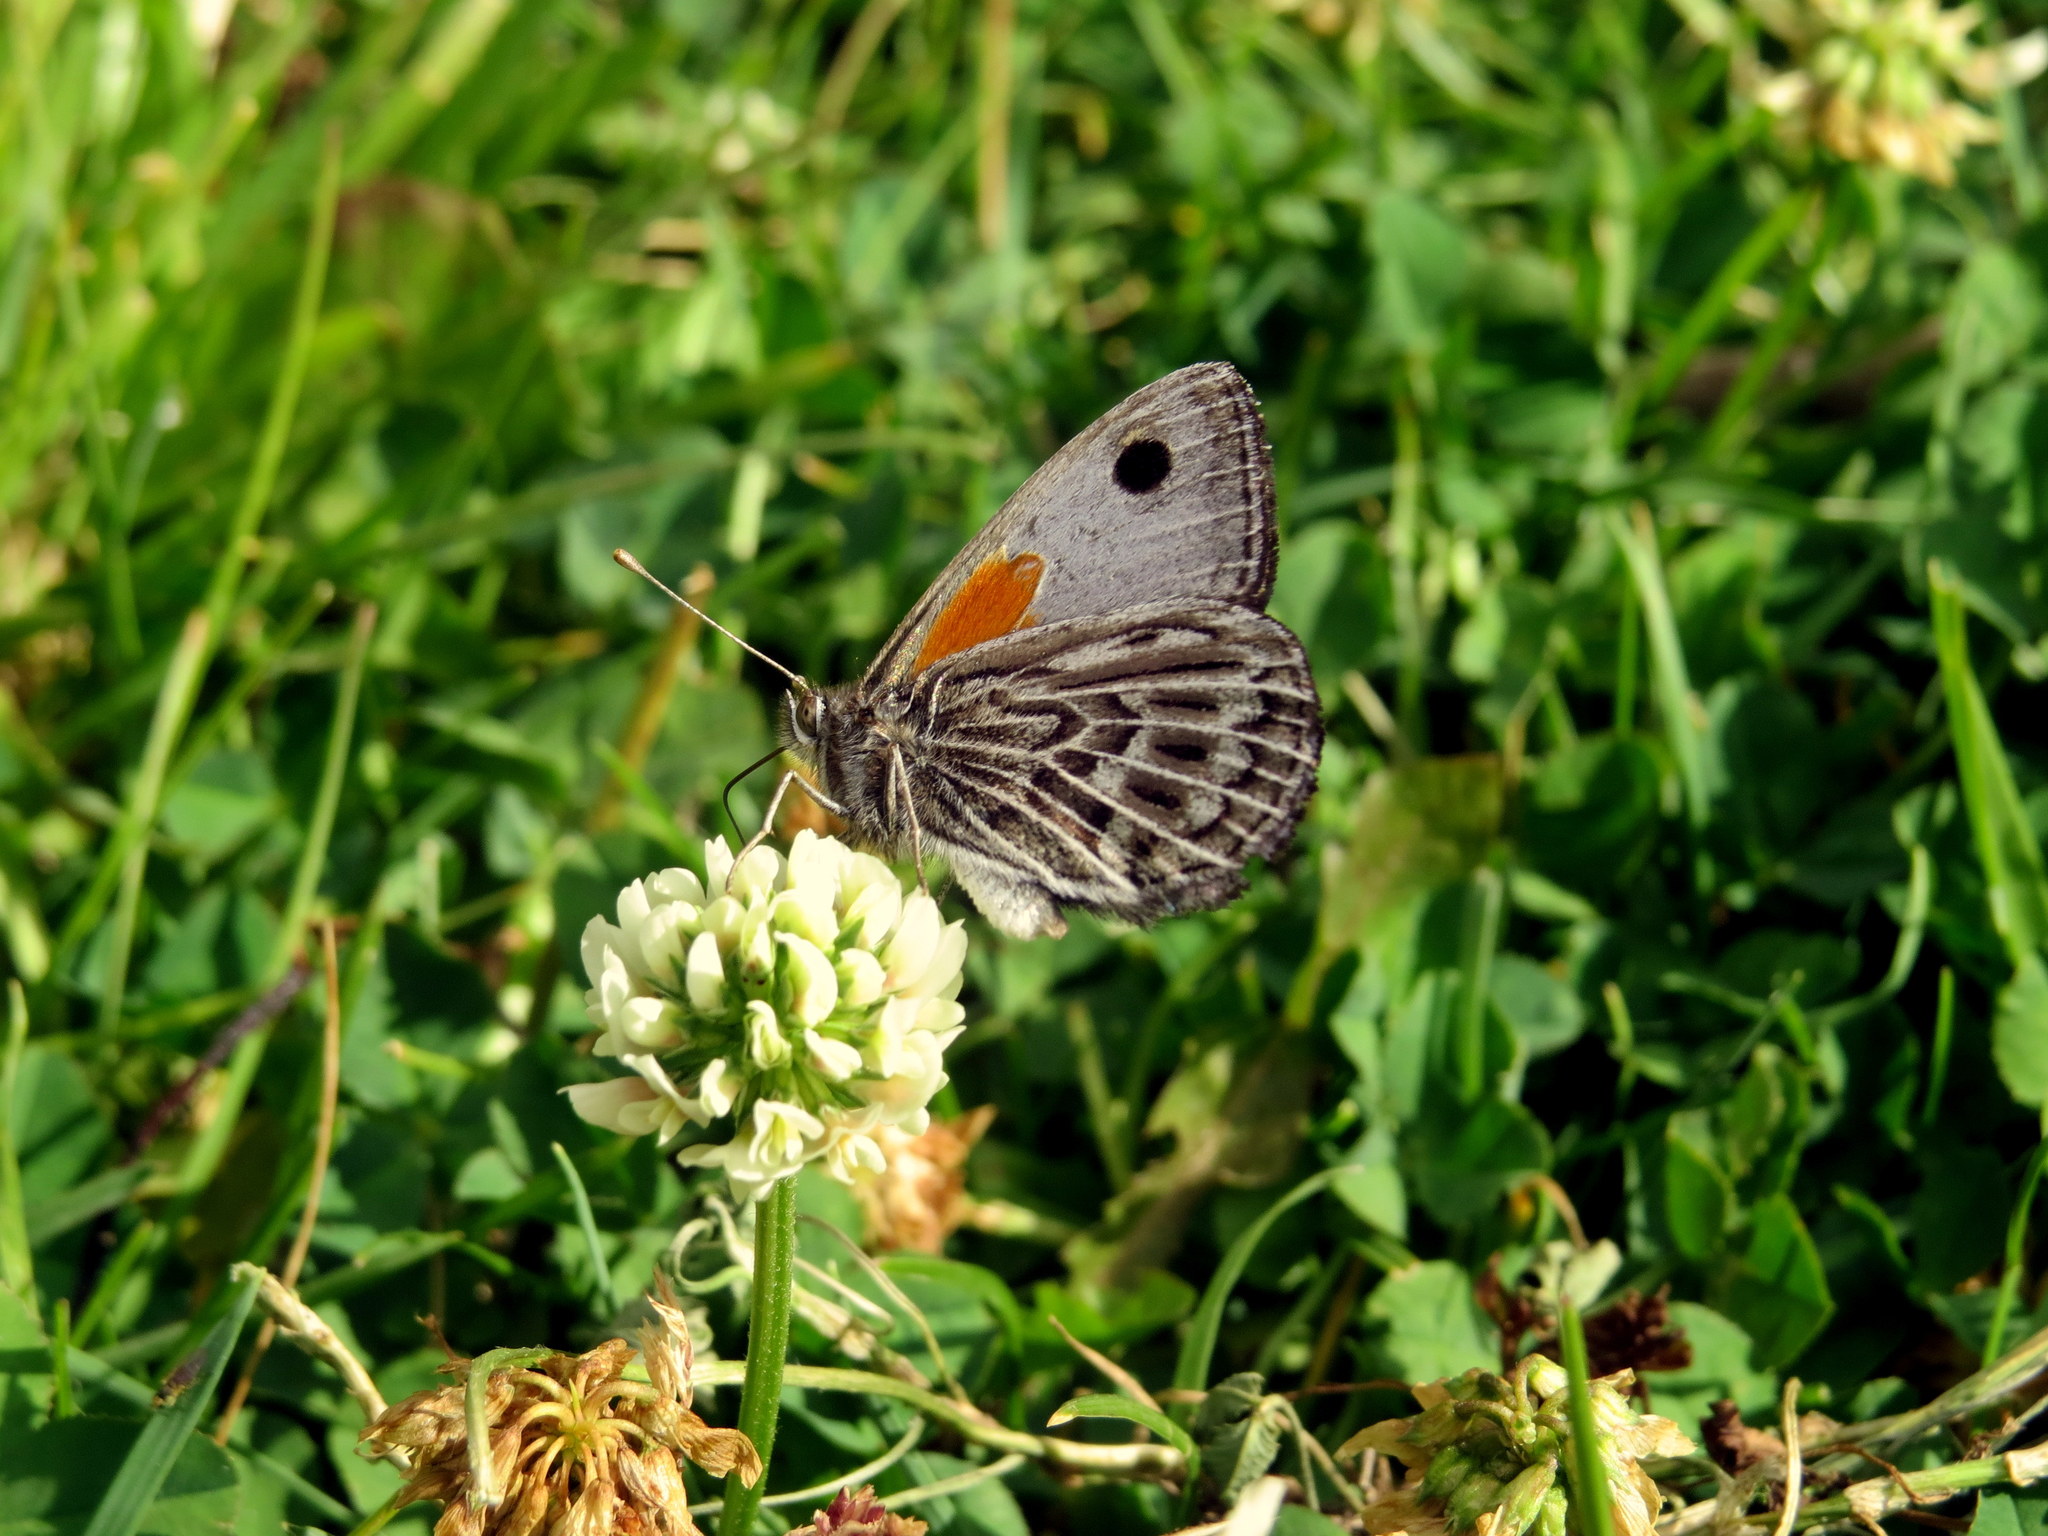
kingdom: Animalia
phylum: Arthropoda
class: Insecta
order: Lepidoptera
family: Nymphalidae
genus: Argyrophorus
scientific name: Argyrophorus argenteus
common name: Silver satyr
